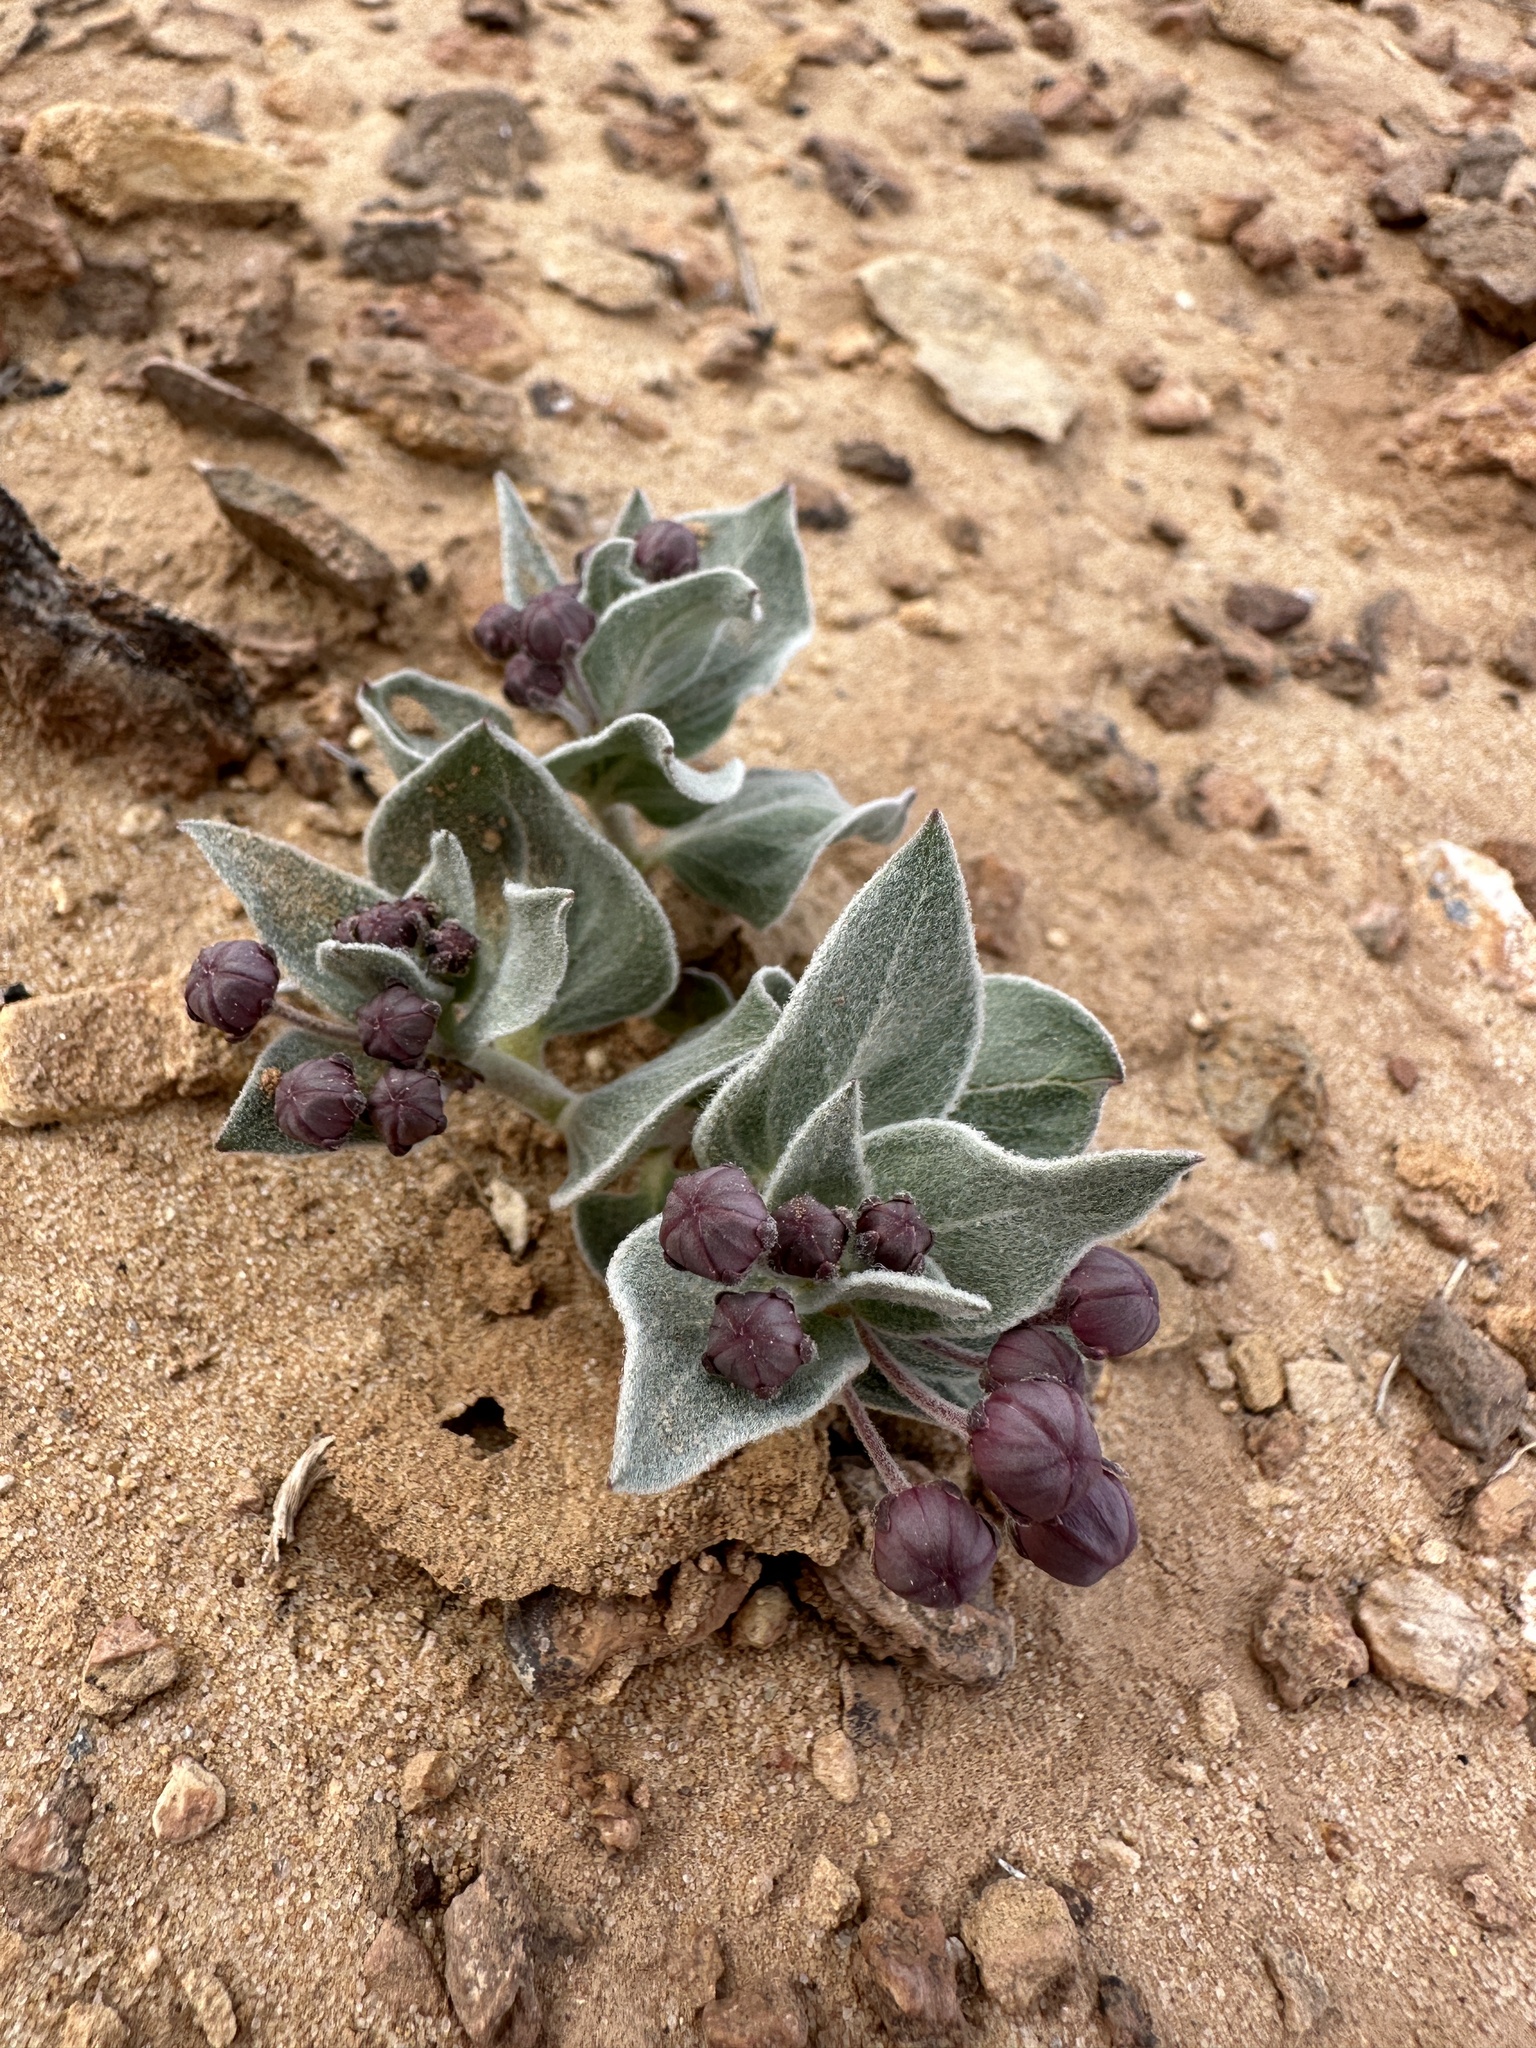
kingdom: Plantae
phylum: Tracheophyta
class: Magnoliopsida
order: Gentianales
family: Apocynaceae
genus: Asclepias
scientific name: Asclepias ruthiae
